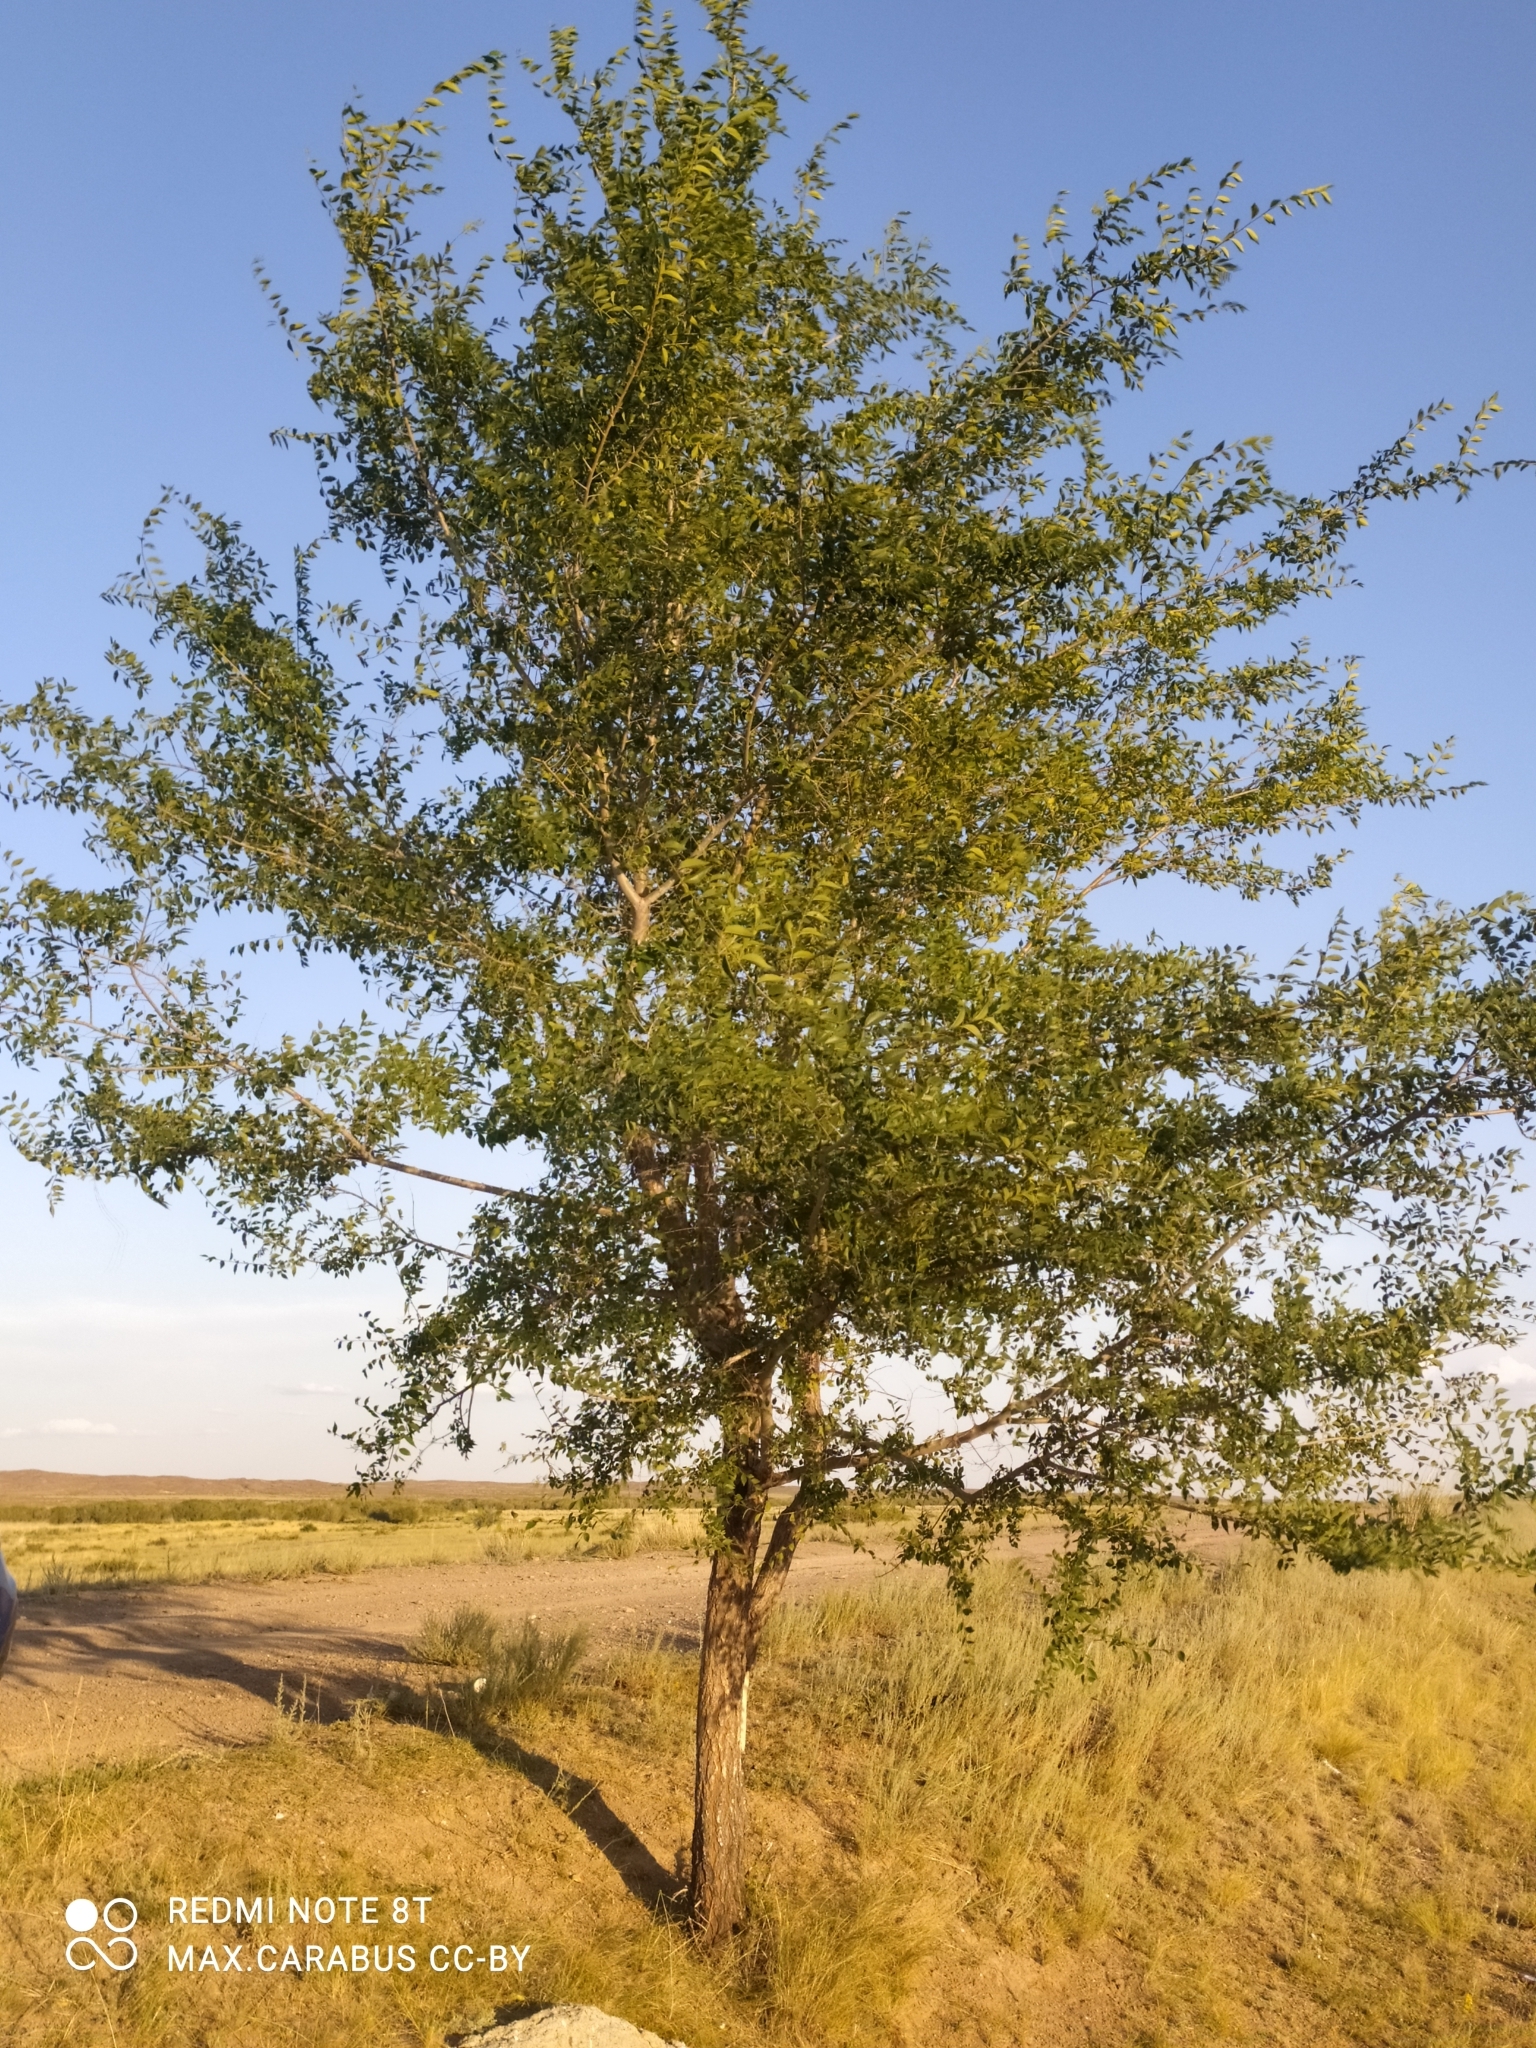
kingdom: Plantae
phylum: Tracheophyta
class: Magnoliopsida
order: Rosales
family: Ulmaceae
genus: Ulmus
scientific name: Ulmus pumila
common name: Siberian elm
